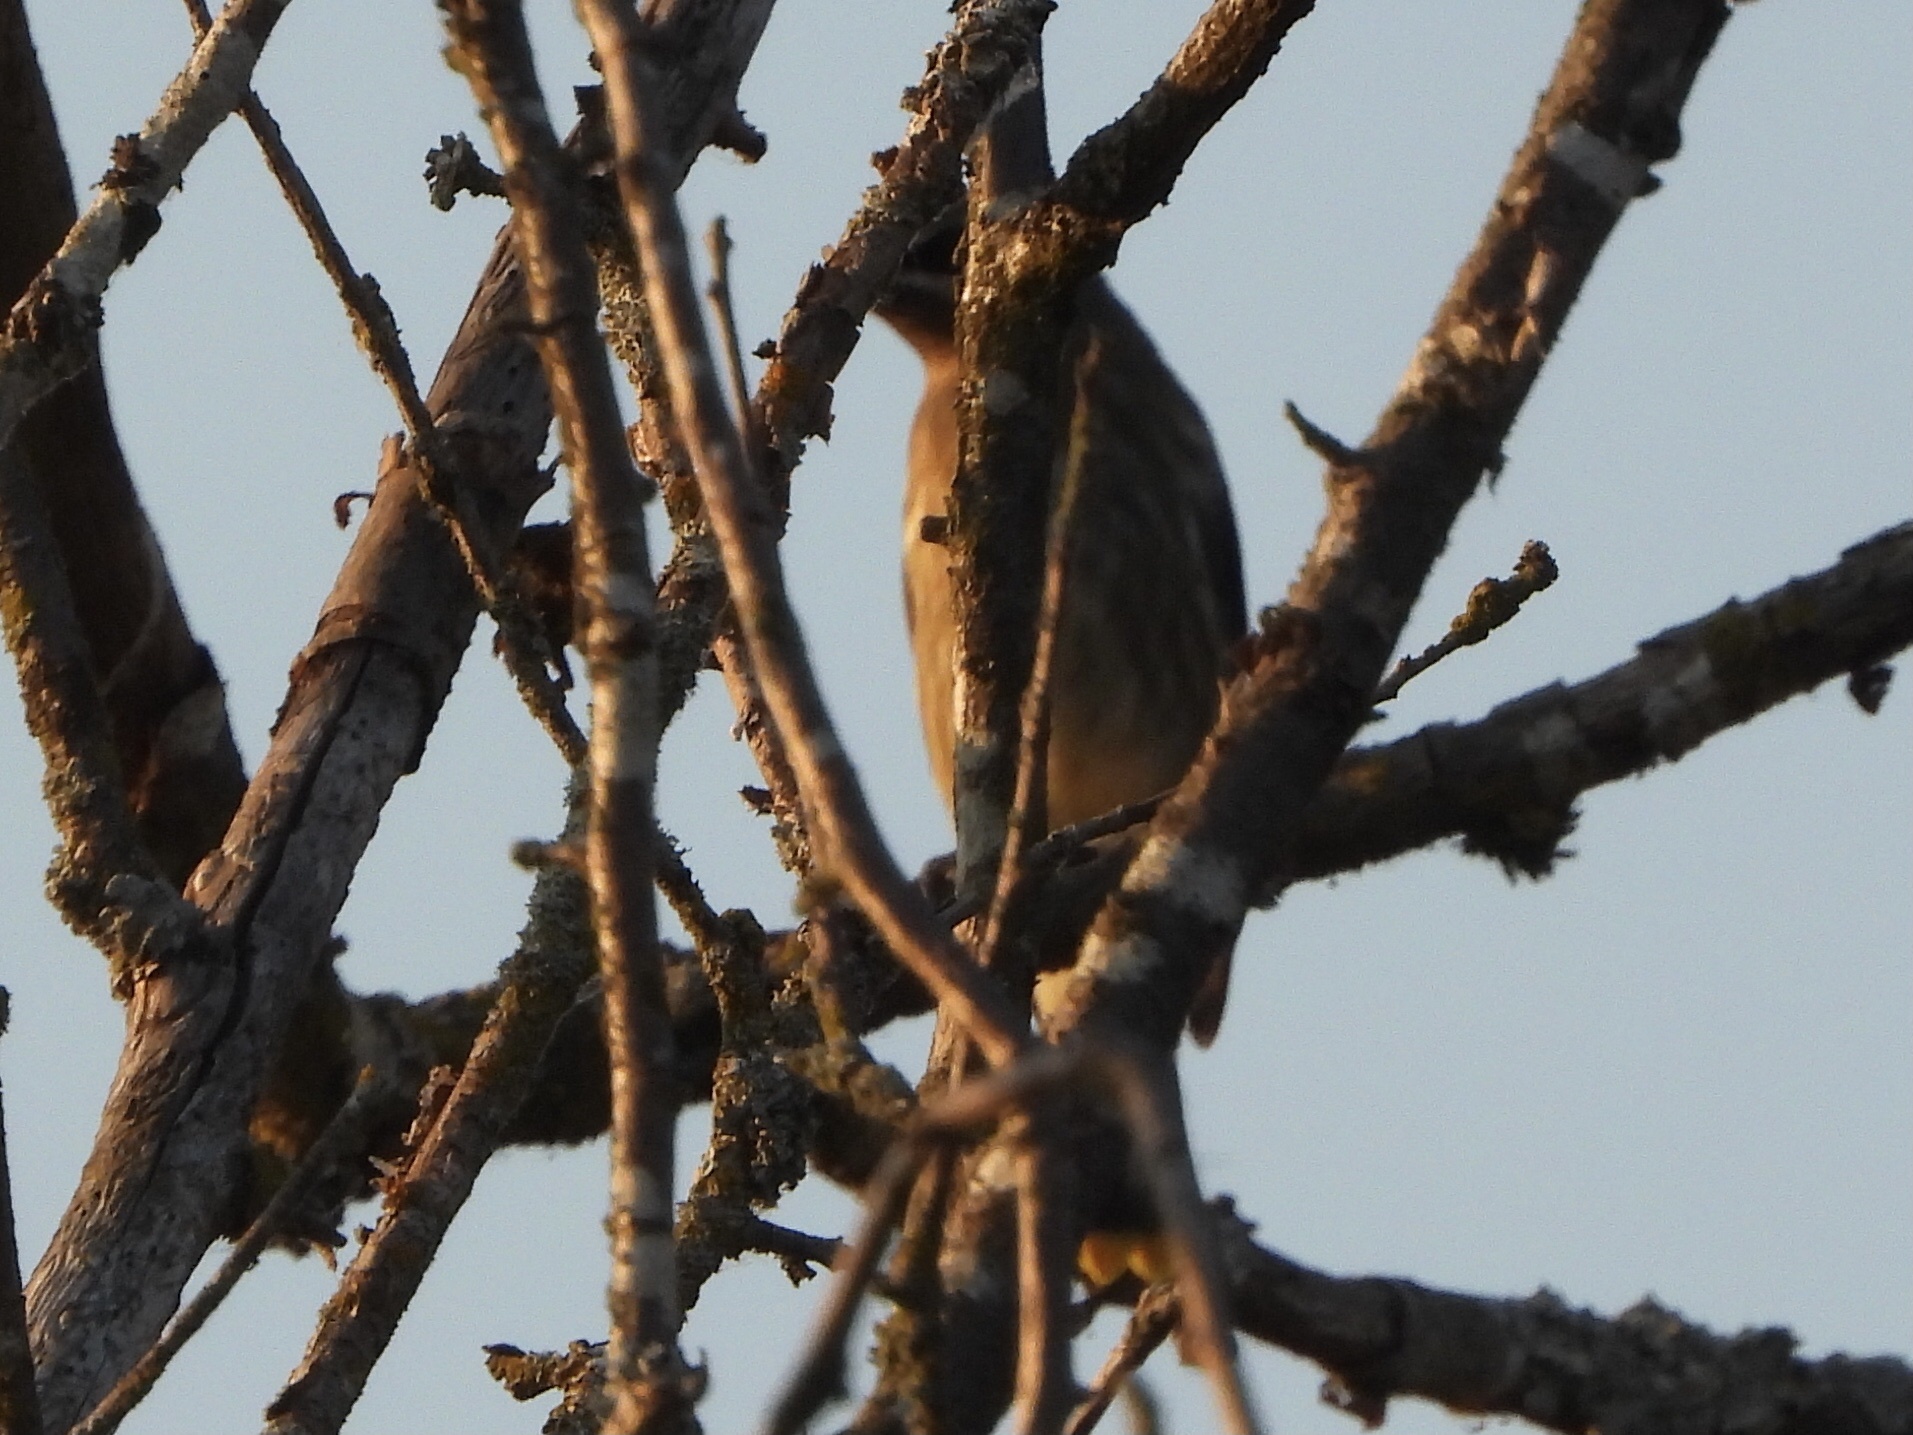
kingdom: Animalia
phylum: Chordata
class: Aves
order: Passeriformes
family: Bombycillidae
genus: Bombycilla
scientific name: Bombycilla cedrorum
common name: Cedar waxwing
